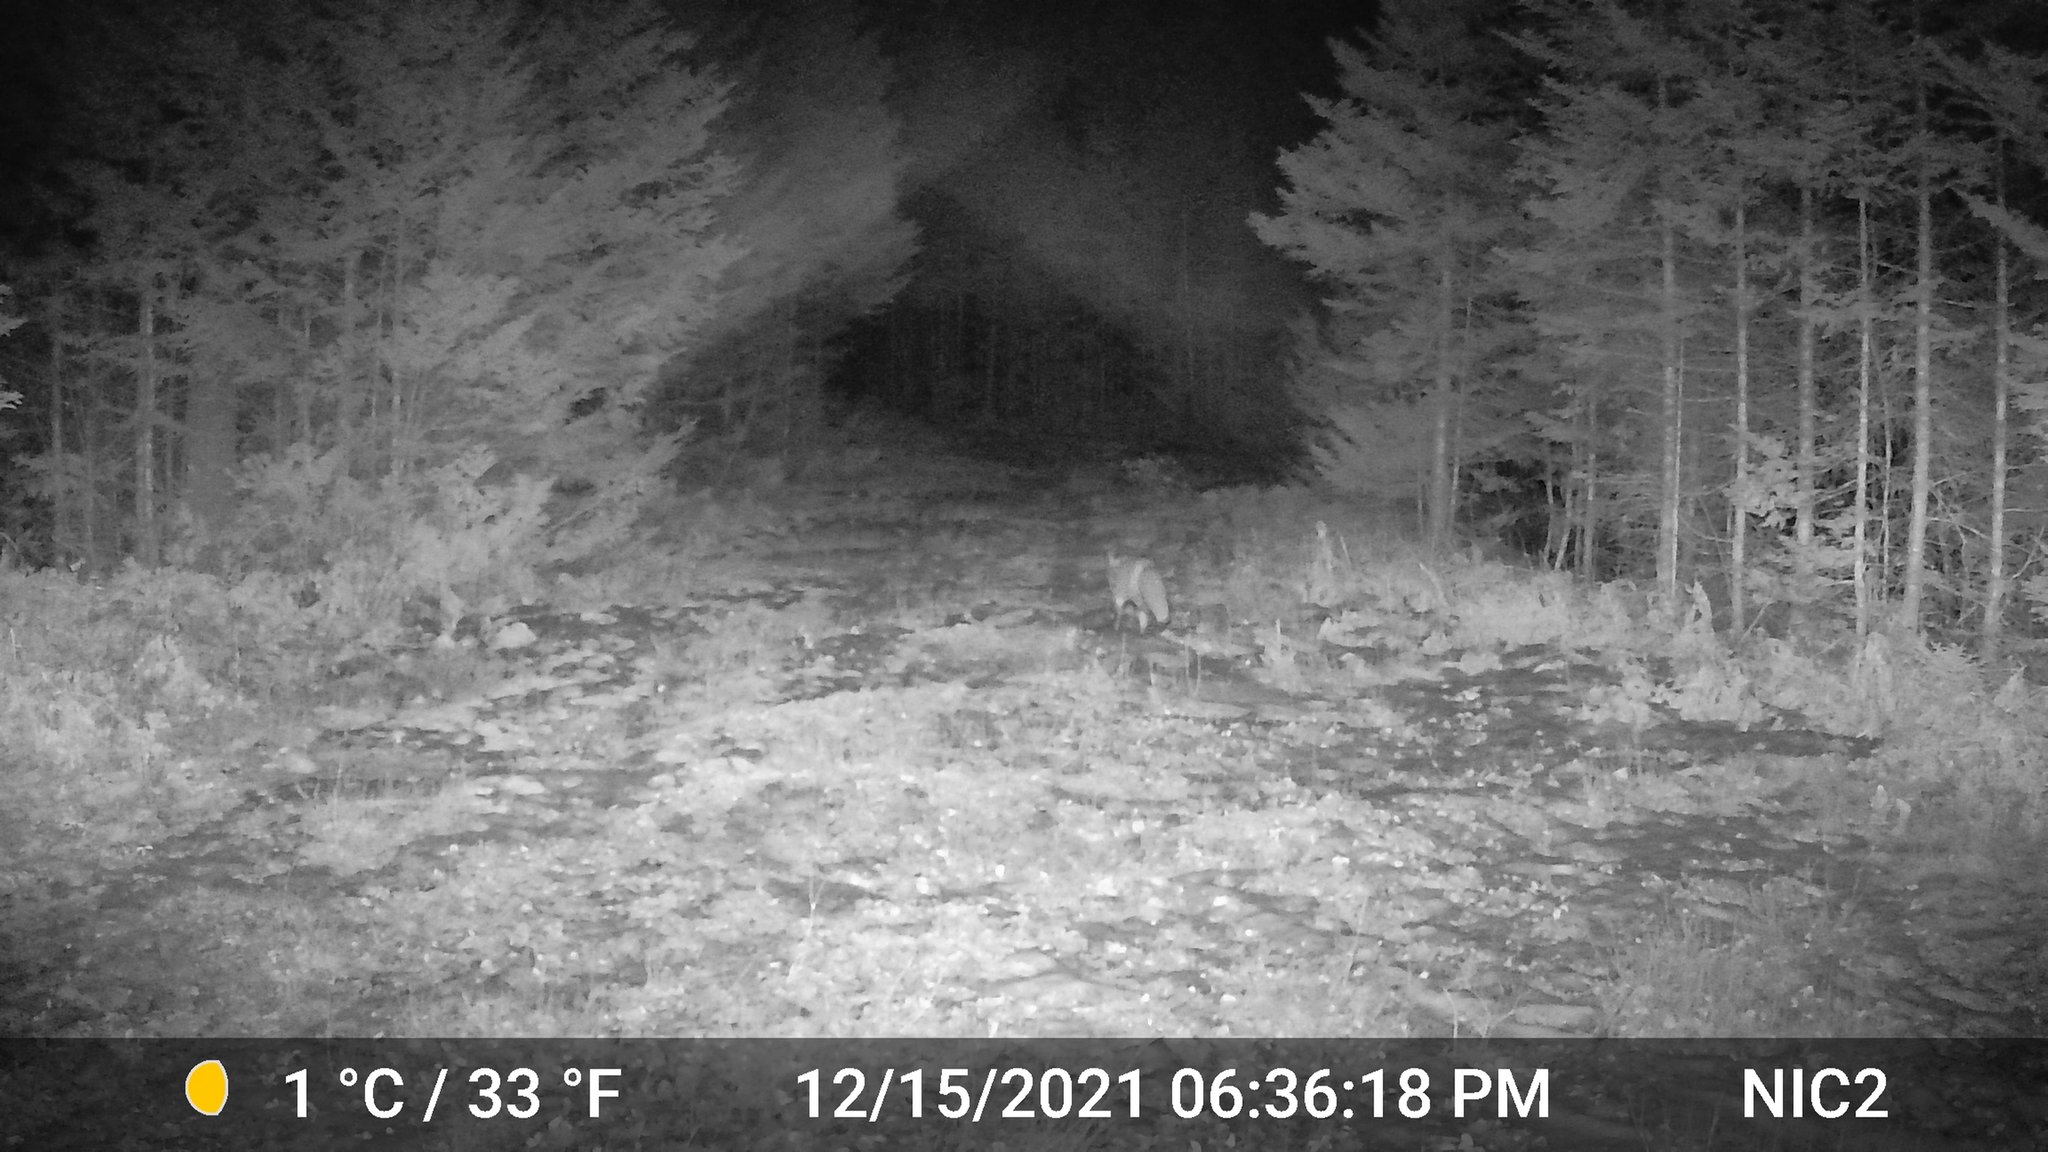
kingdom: Animalia
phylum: Chordata
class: Mammalia
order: Carnivora
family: Canidae
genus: Vulpes
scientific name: Vulpes vulpes
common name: Red fox
